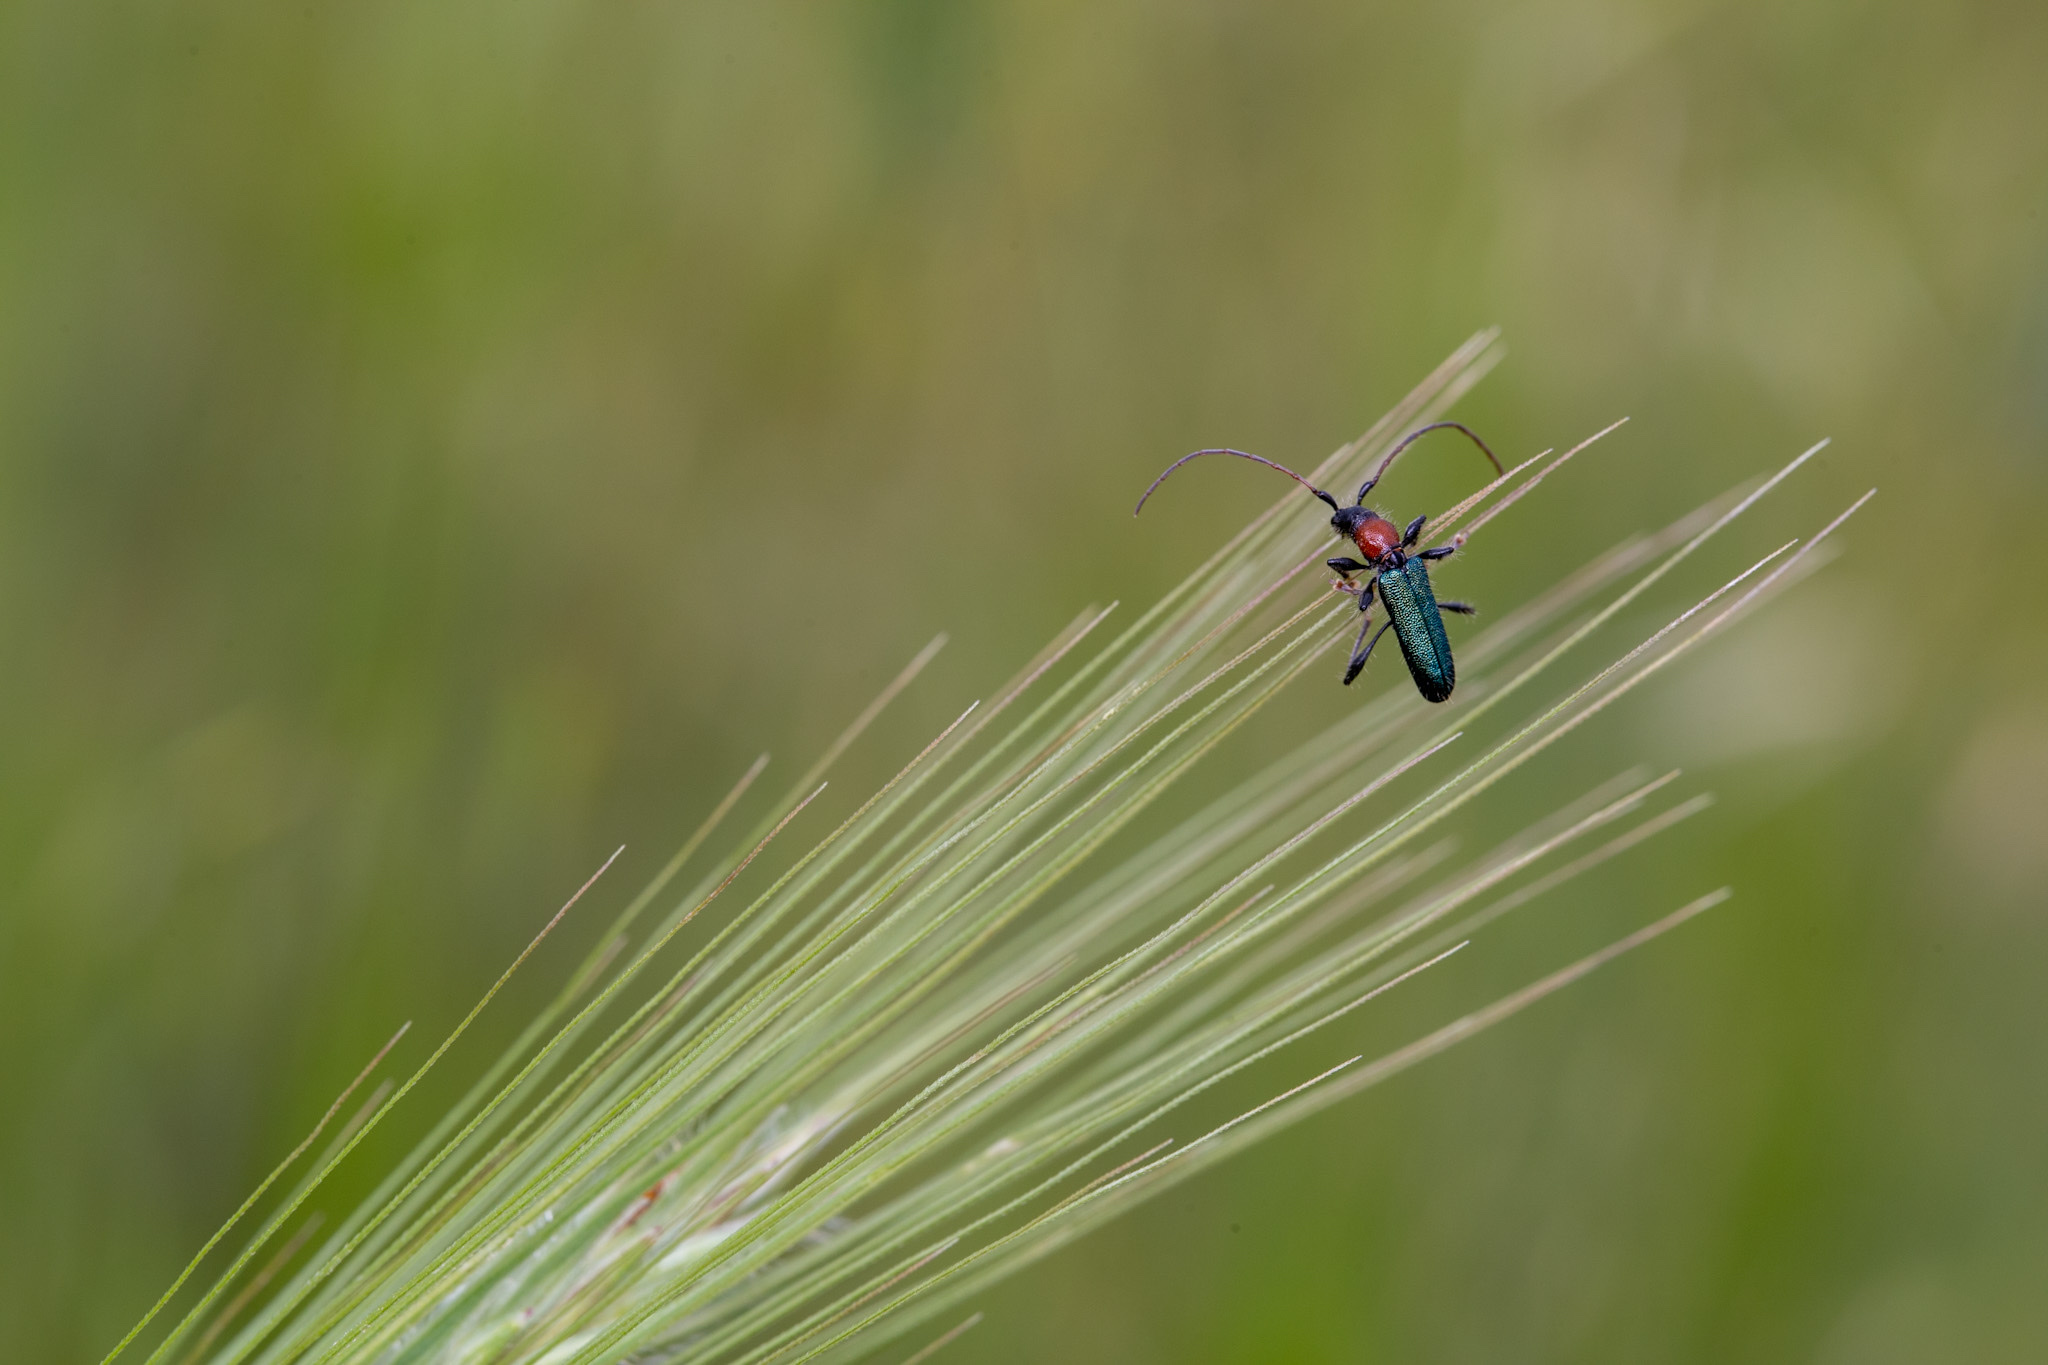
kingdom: Animalia
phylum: Arthropoda
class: Insecta
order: Coleoptera
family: Cerambycidae
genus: Certallum
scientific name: Certallum ebulinum
